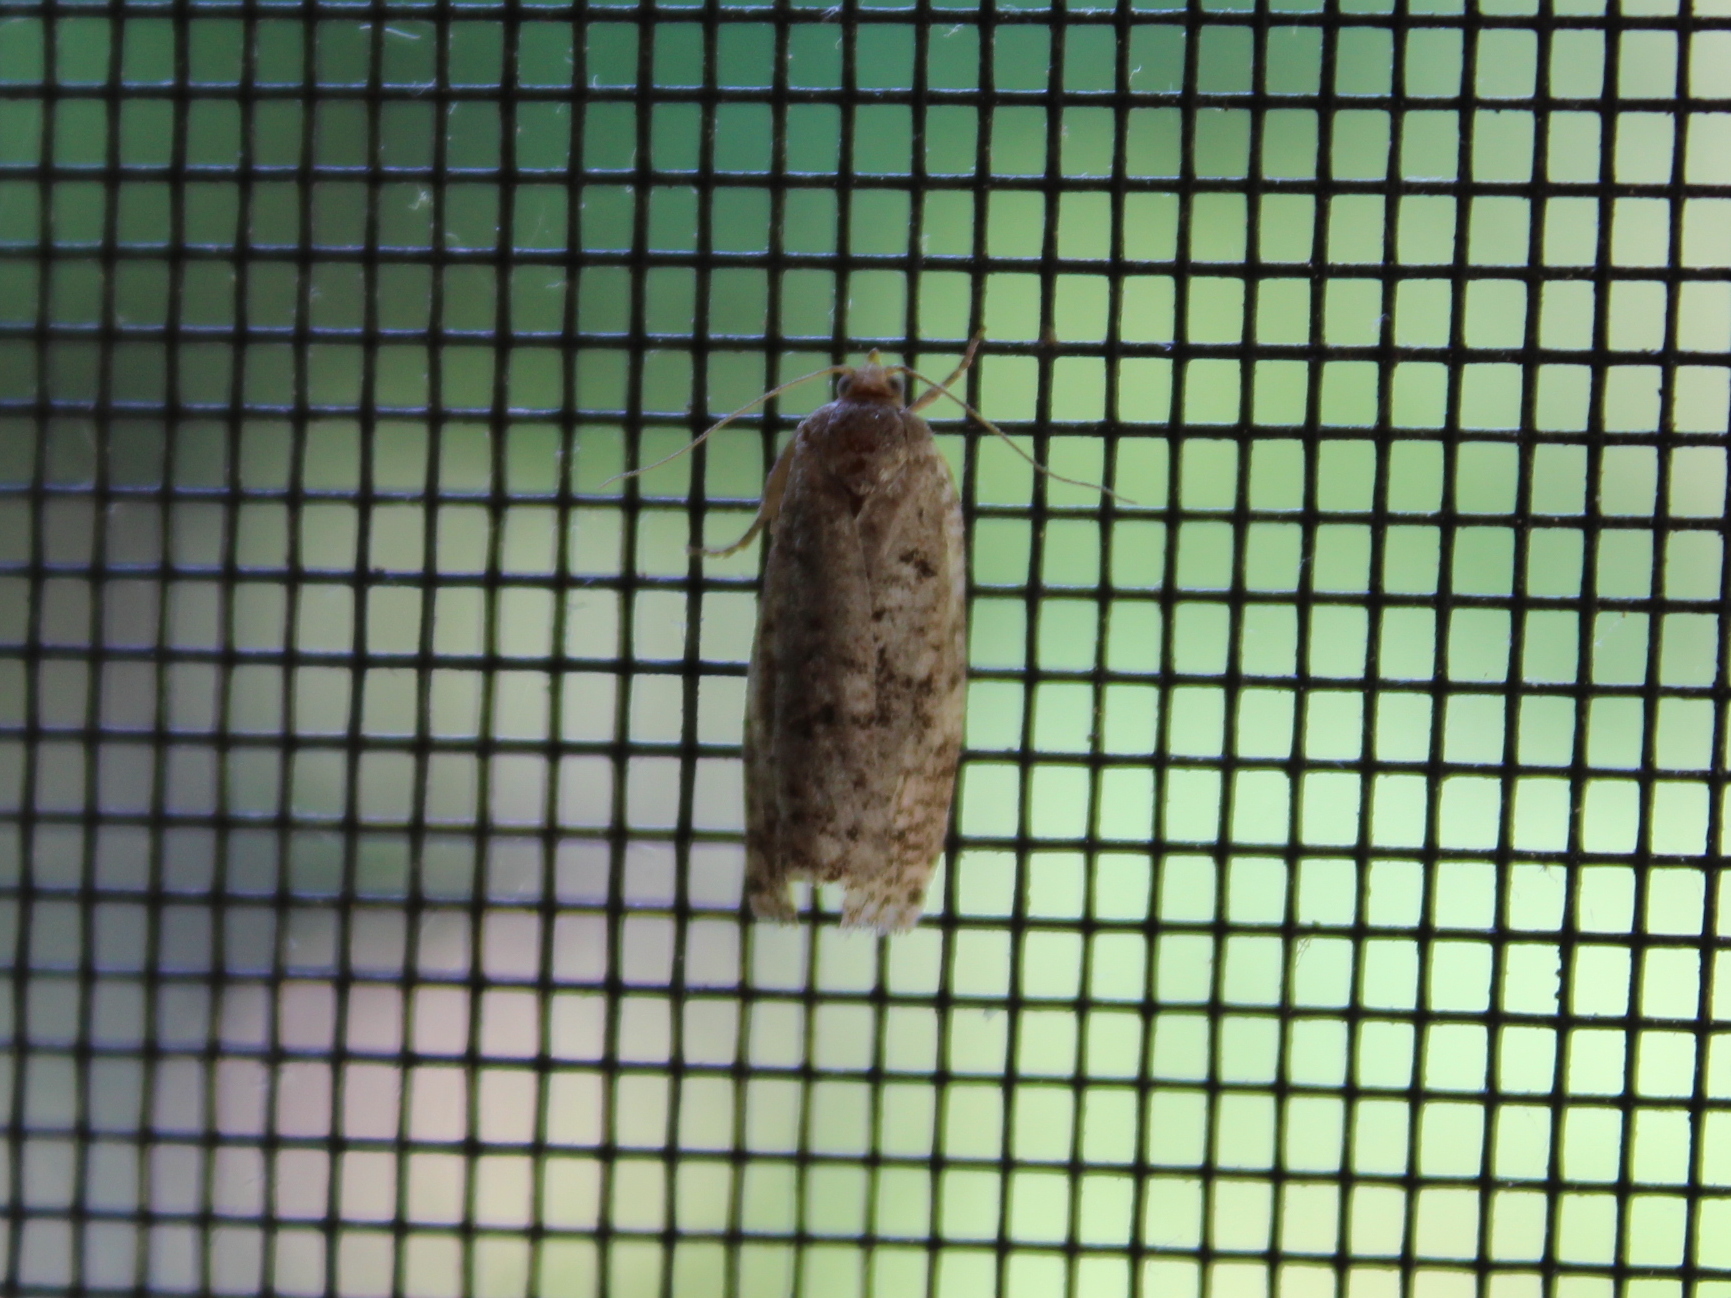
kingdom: Animalia
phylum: Arthropoda
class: Insecta
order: Lepidoptera
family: Tortricidae
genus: Choristoneura
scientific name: Choristoneura fumiferana
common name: Spruce budworm
